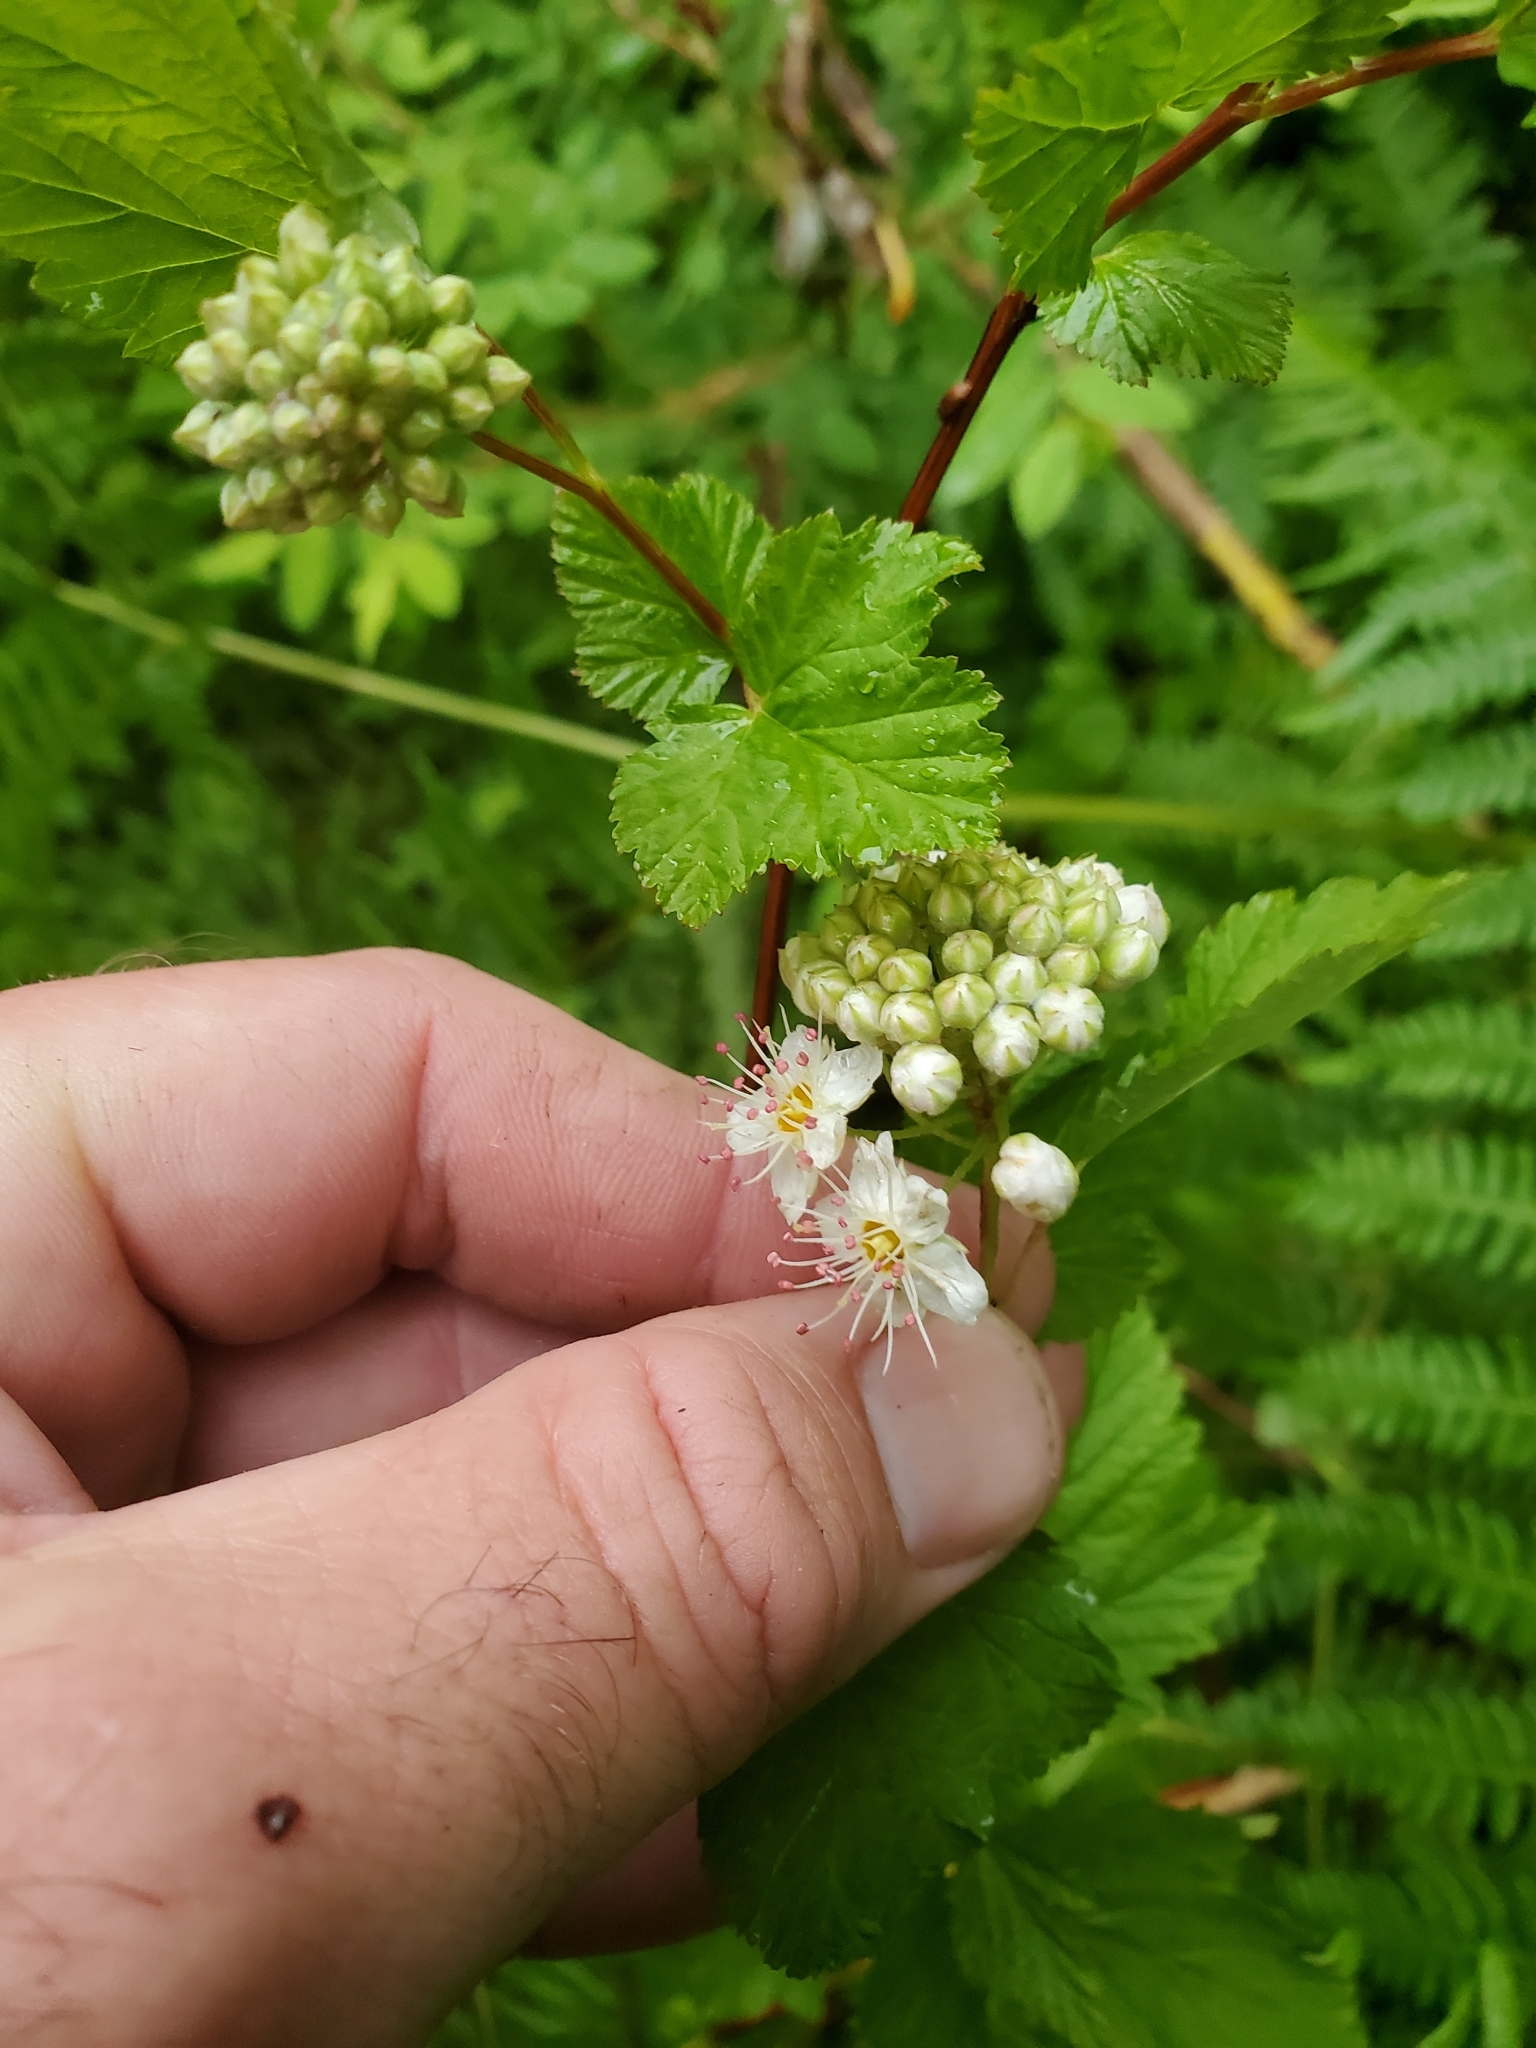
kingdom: Plantae
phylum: Tracheophyta
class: Magnoliopsida
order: Rosales
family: Rosaceae
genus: Physocarpus
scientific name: Physocarpus capitatus
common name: Pacific ninebark
